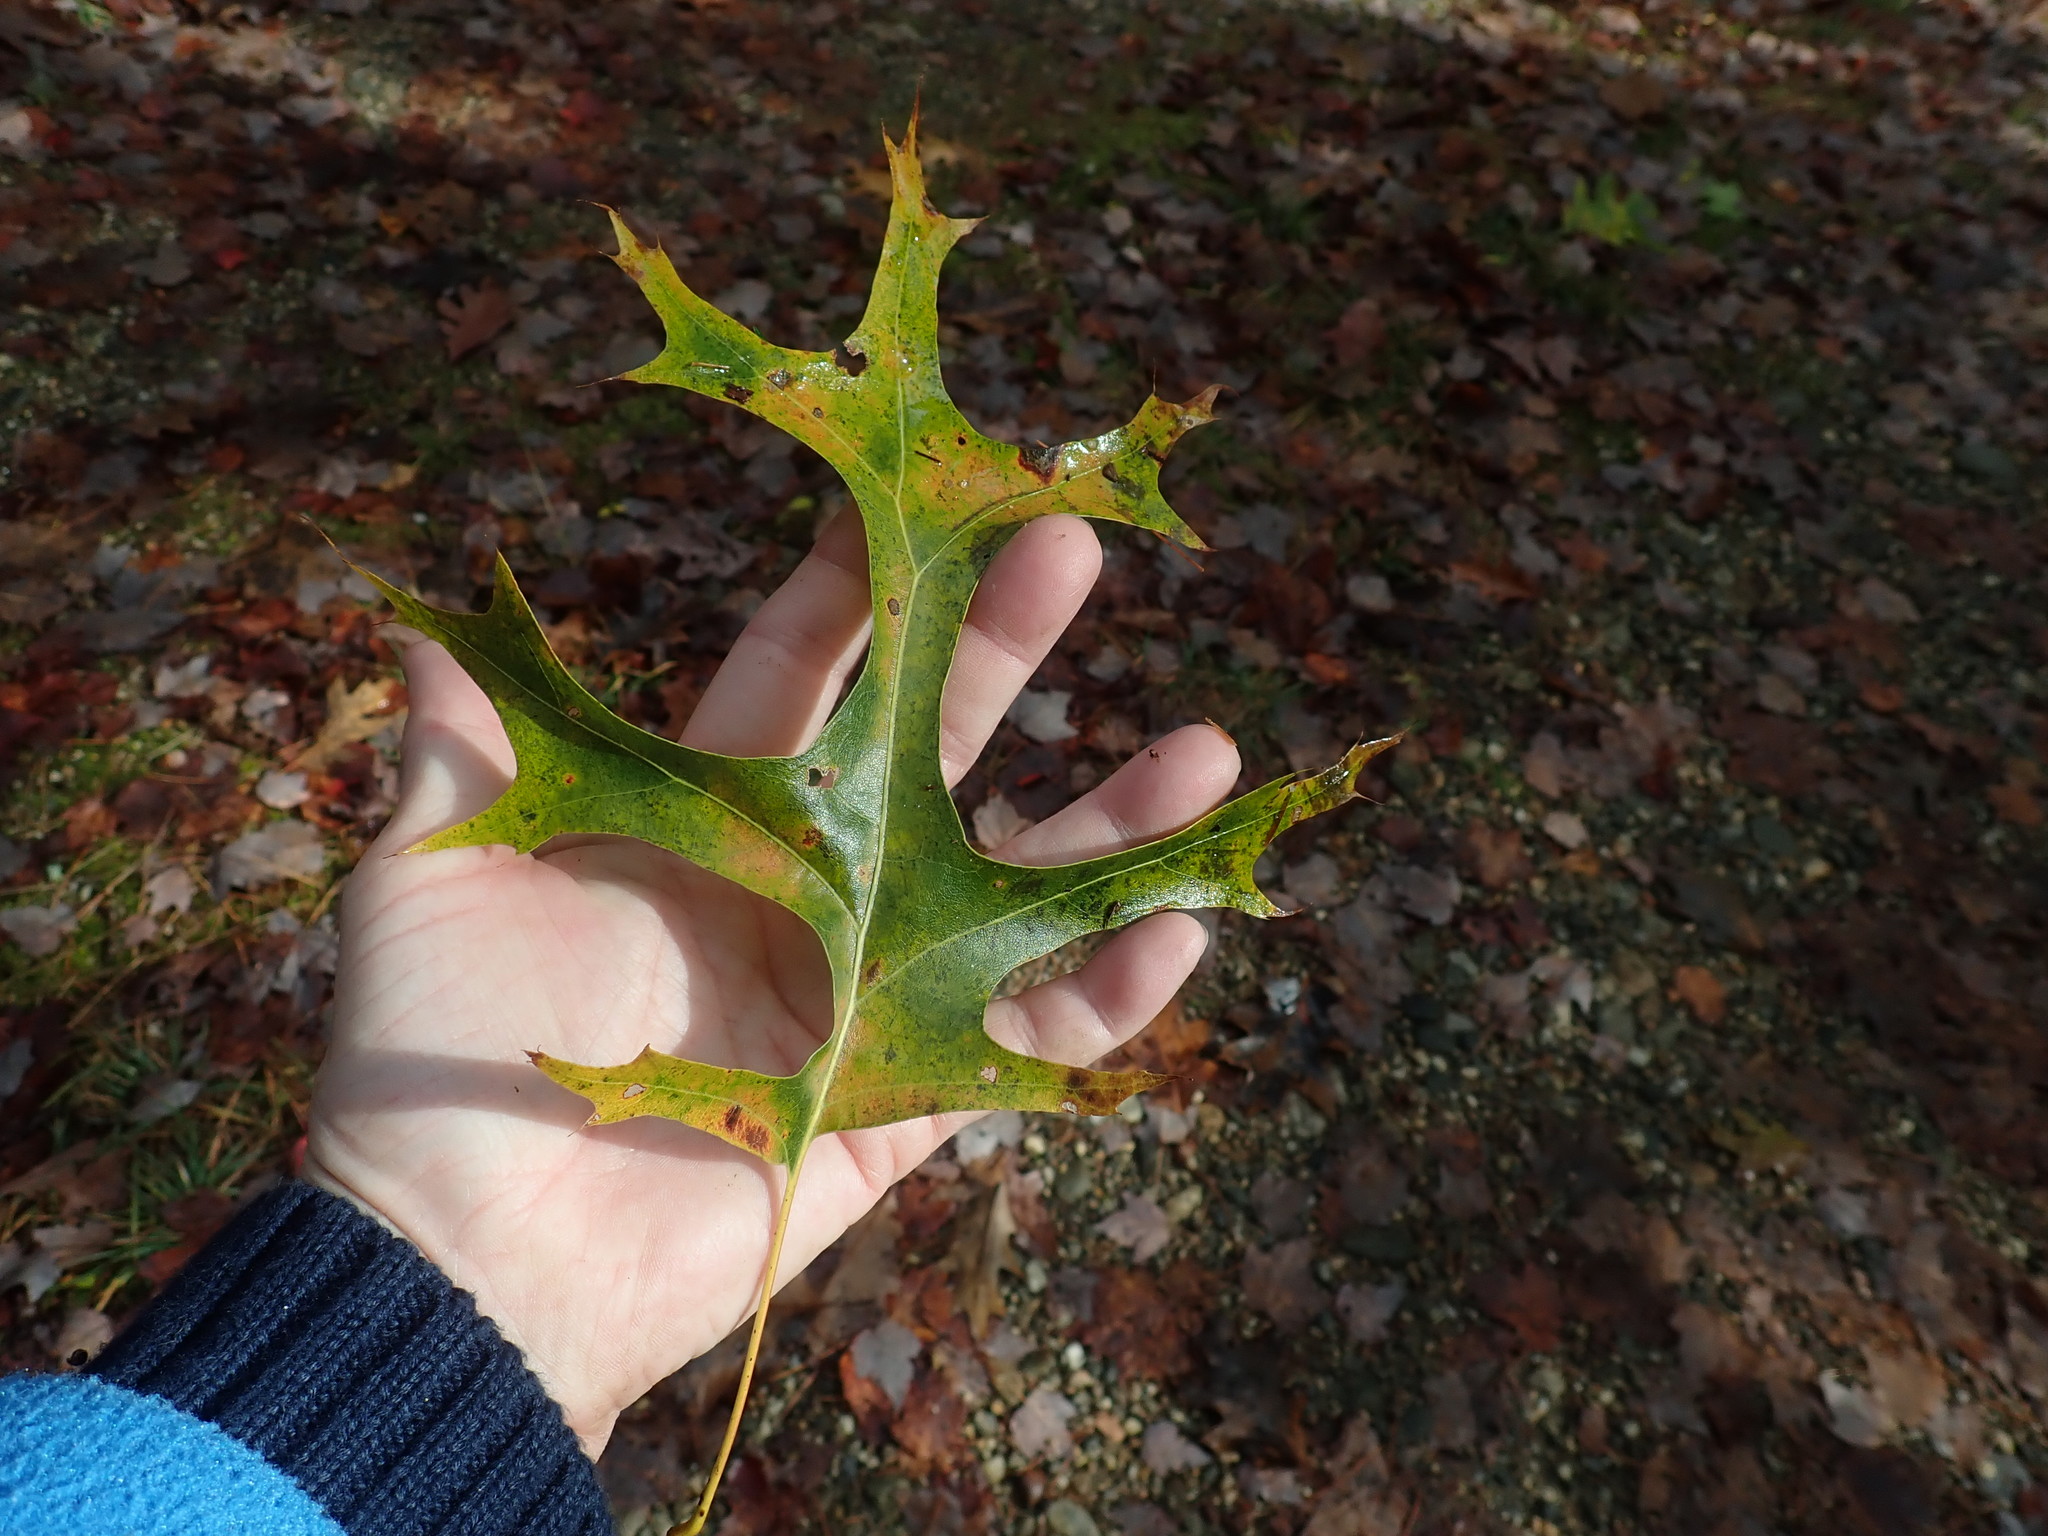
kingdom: Plantae
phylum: Tracheophyta
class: Magnoliopsida
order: Fagales
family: Fagaceae
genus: Quercus
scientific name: Quercus coccinea
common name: Scarlet oak
